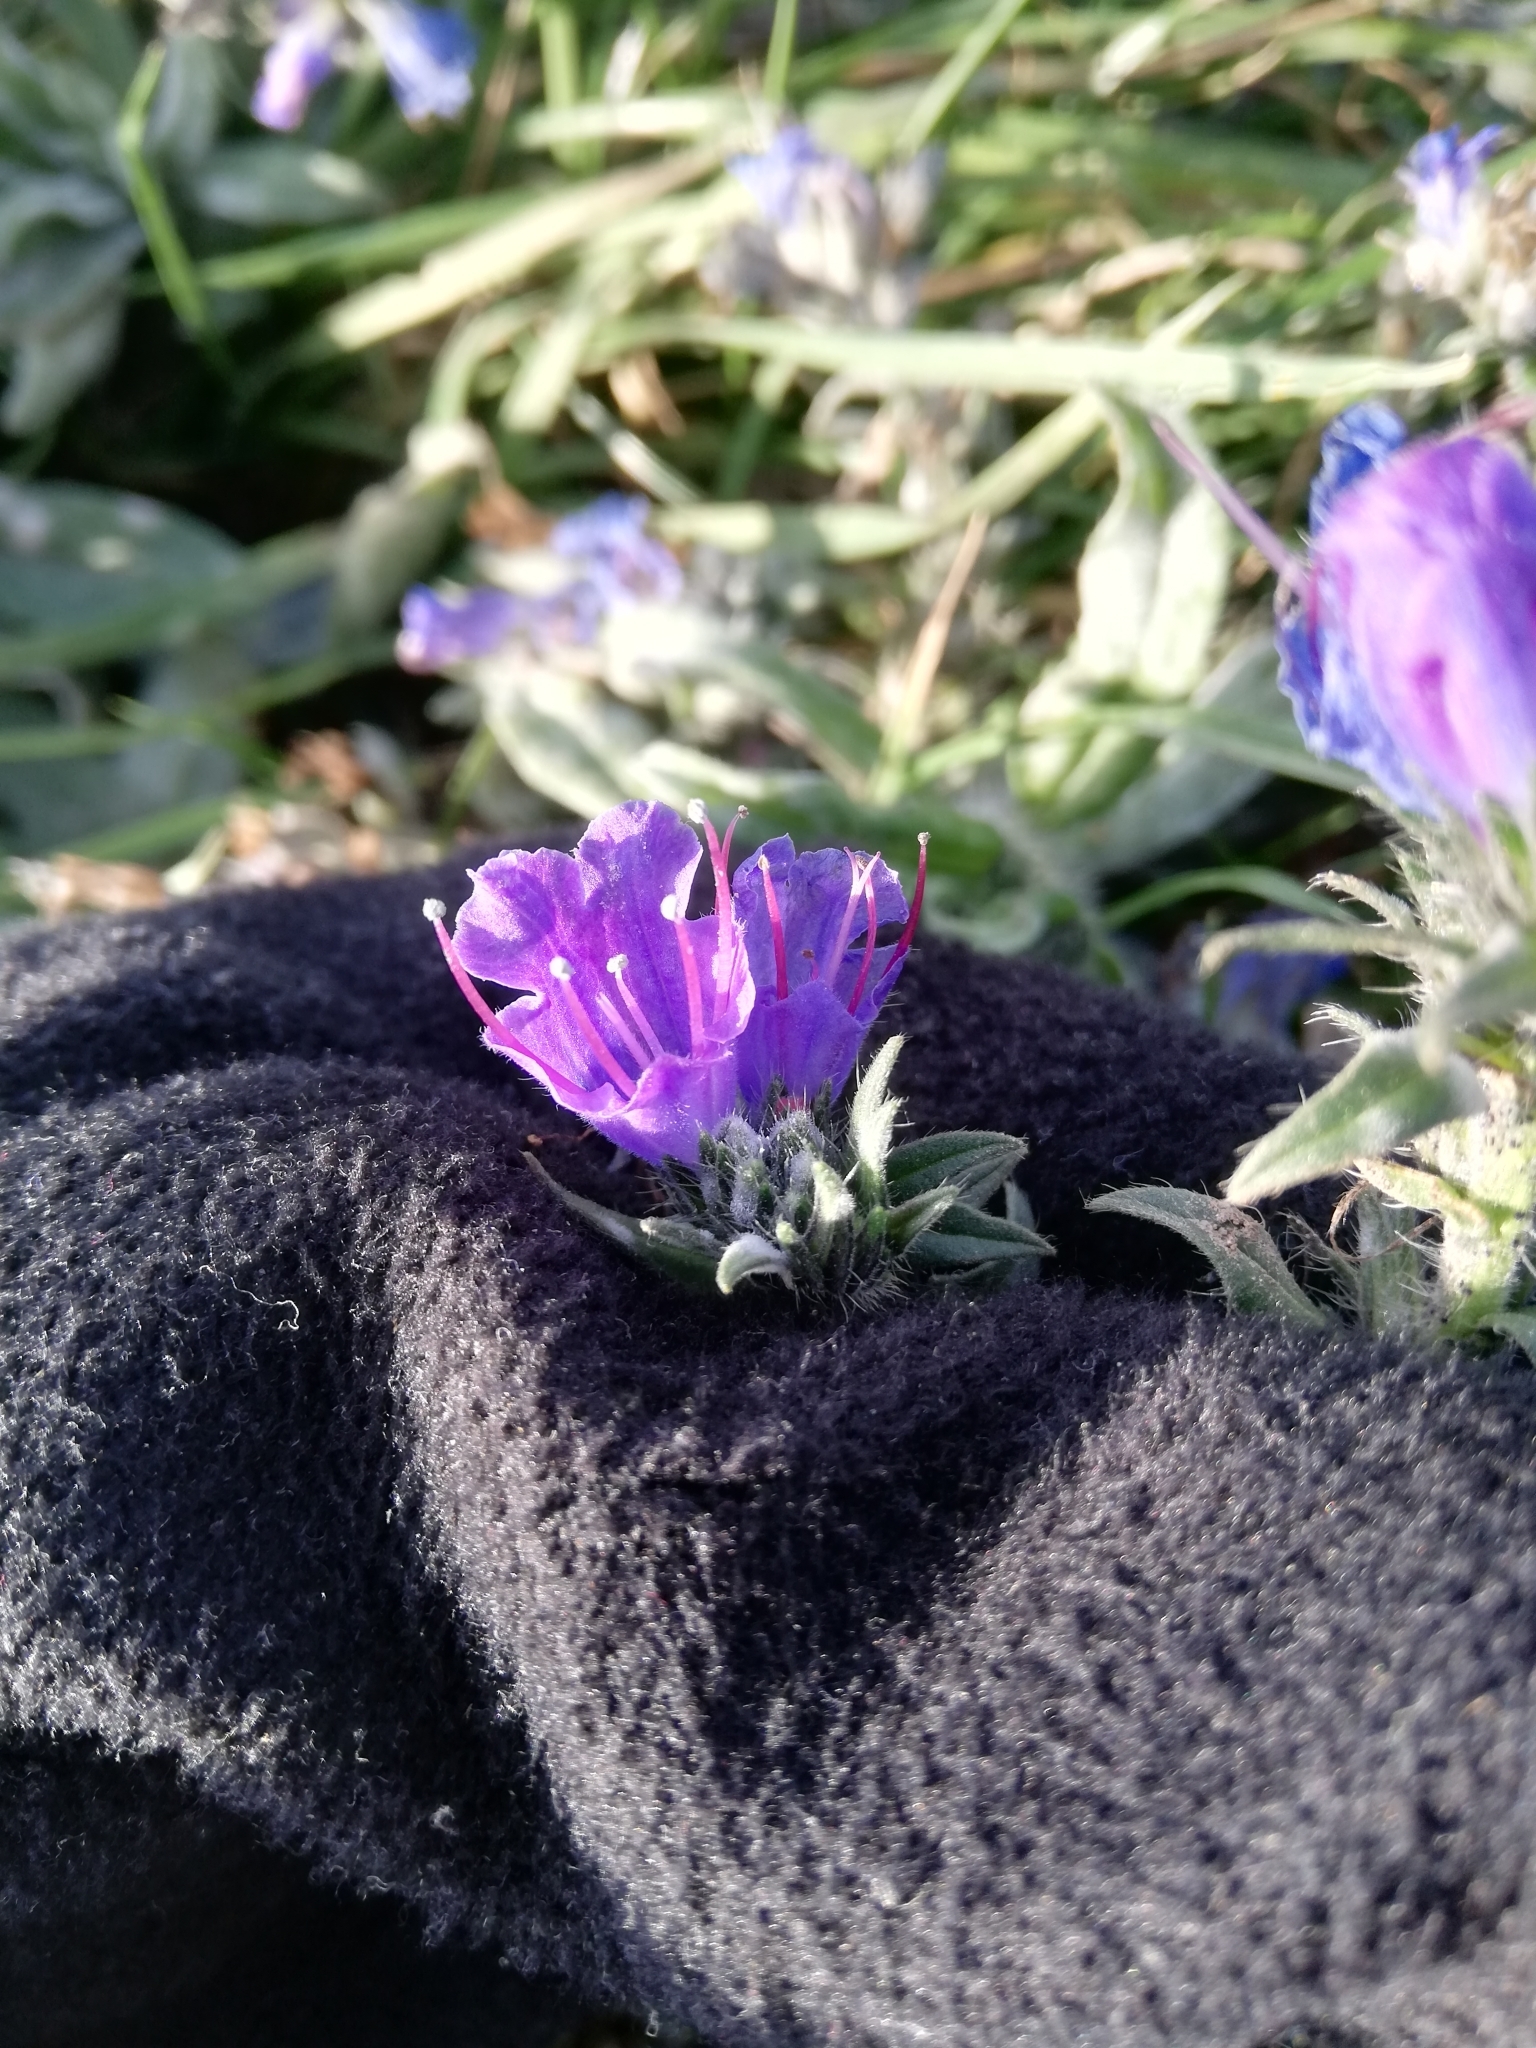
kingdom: Plantae
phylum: Tracheophyta
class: Magnoliopsida
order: Boraginales
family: Boraginaceae
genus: Echium
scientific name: Echium vulgare
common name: Common viper's bugloss
